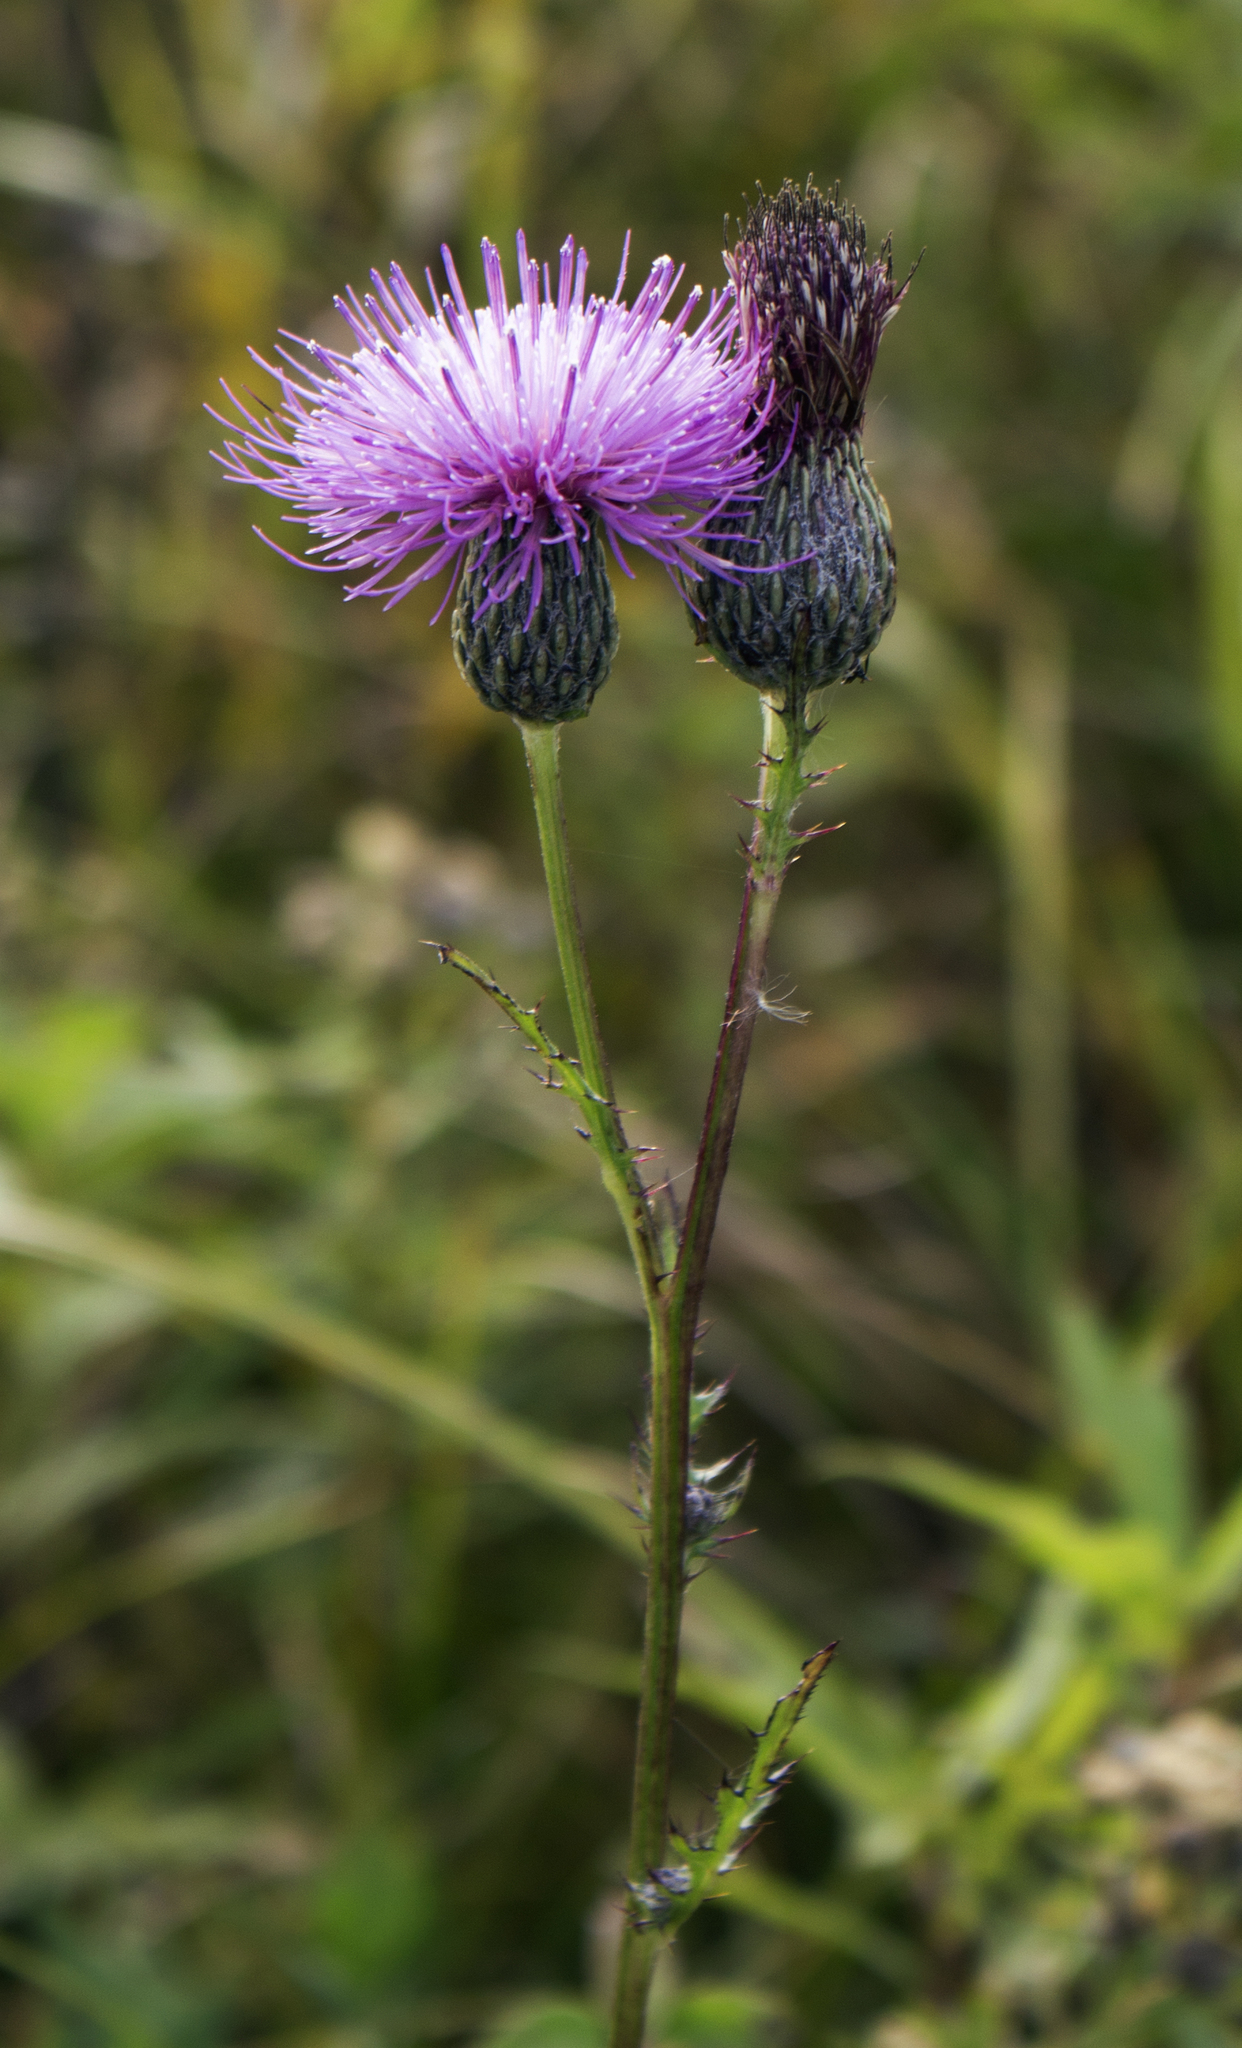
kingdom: Plantae
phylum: Tracheophyta
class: Magnoliopsida
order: Asterales
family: Asteraceae
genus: Cirsium
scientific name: Cirsium muticum
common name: Dunce-nettle
